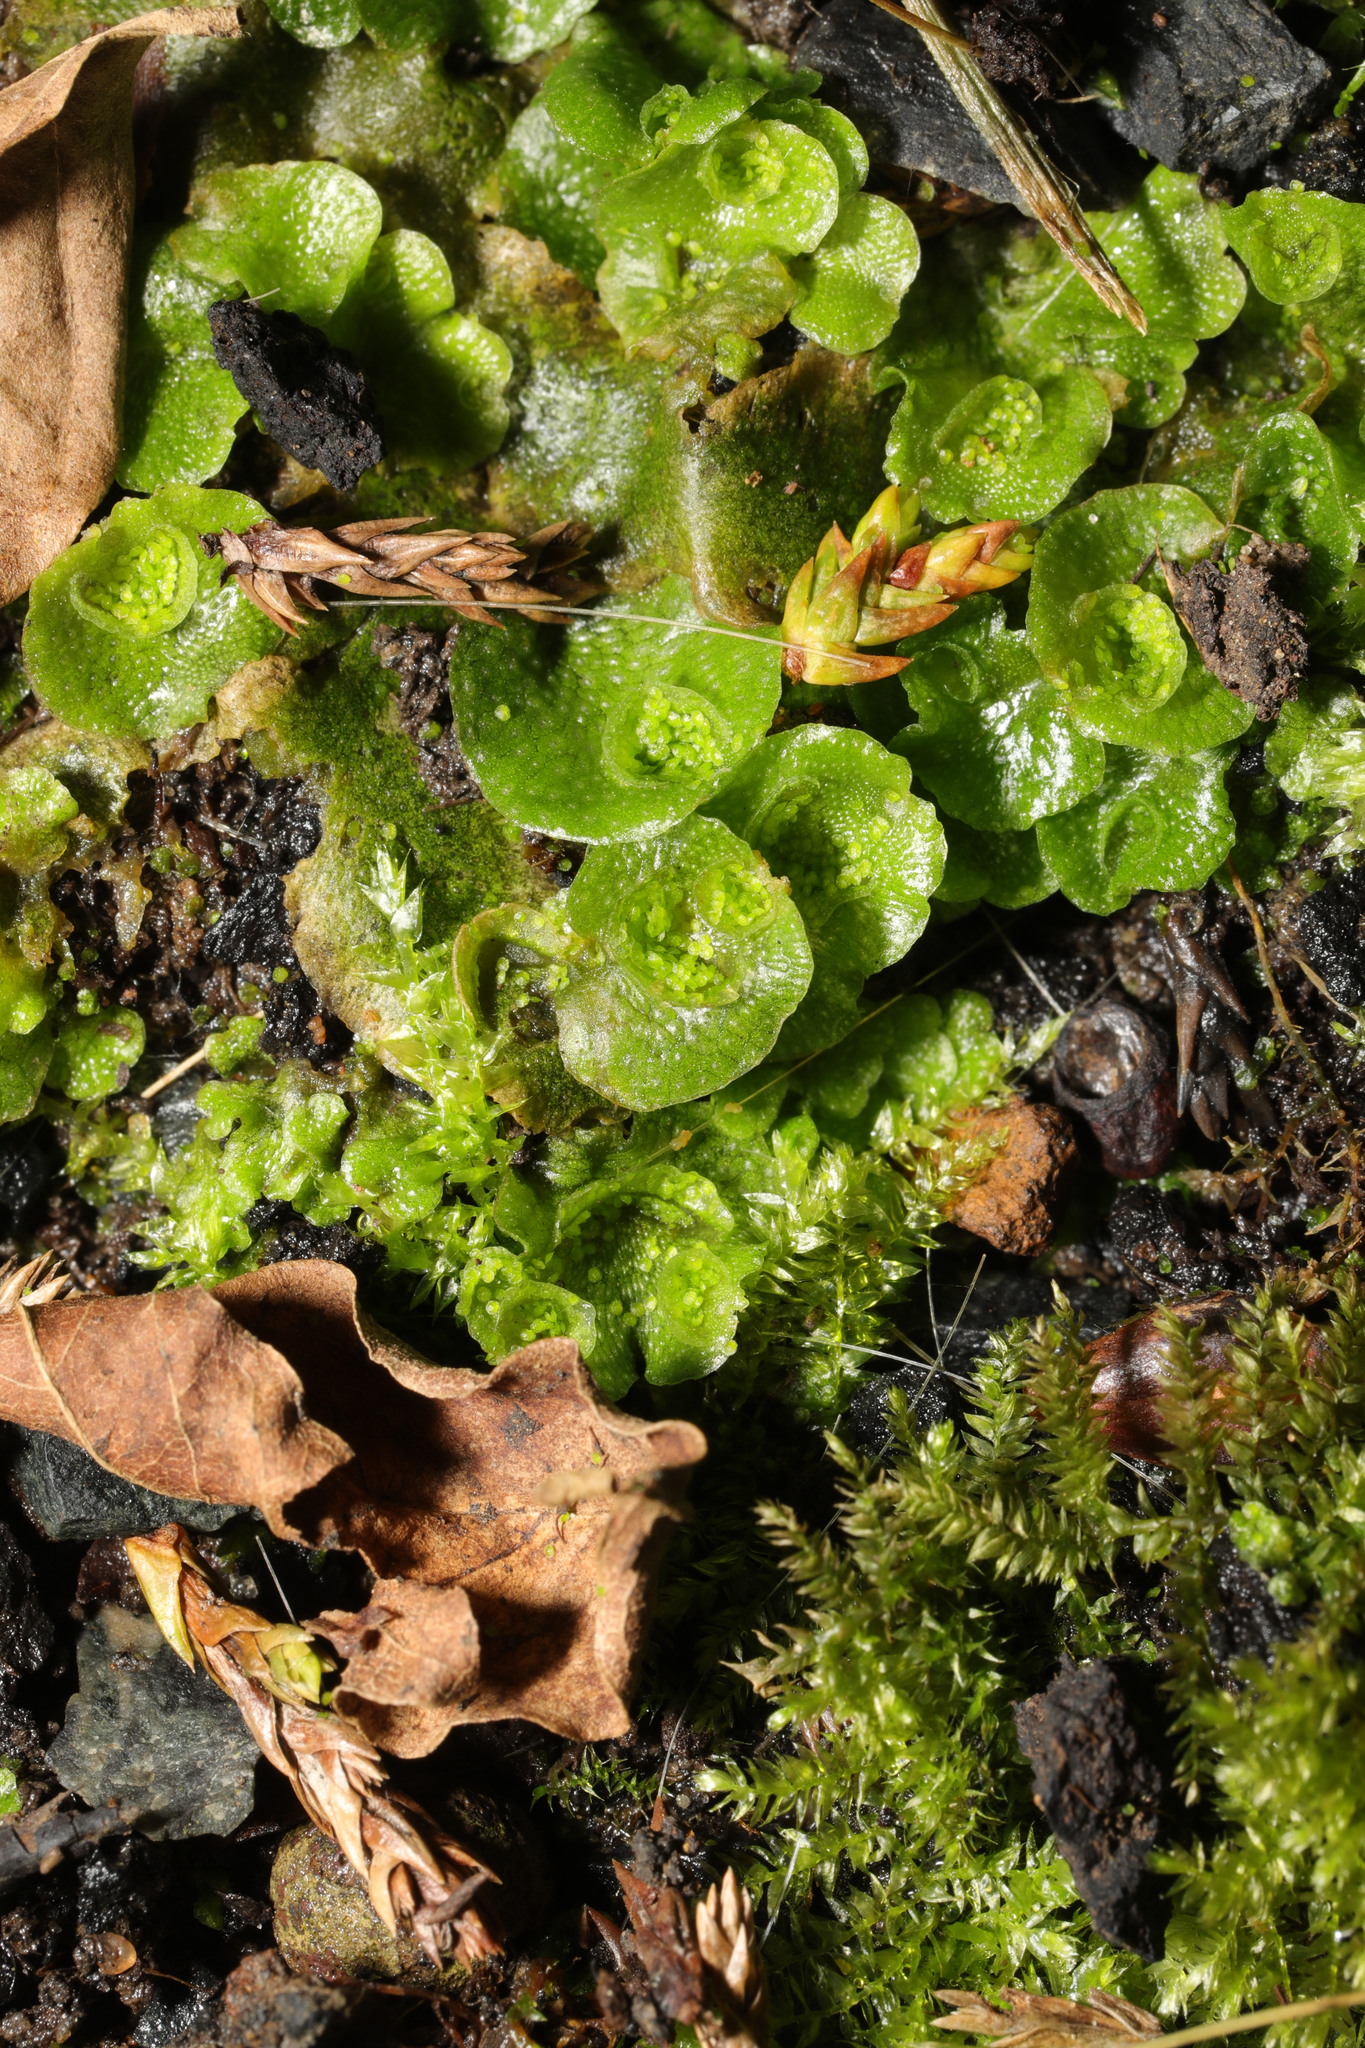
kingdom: Plantae
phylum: Marchantiophyta
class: Marchantiopsida
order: Lunulariales
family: Lunulariaceae
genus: Lunularia
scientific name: Lunularia cruciata
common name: Crescent-cup liverwort
